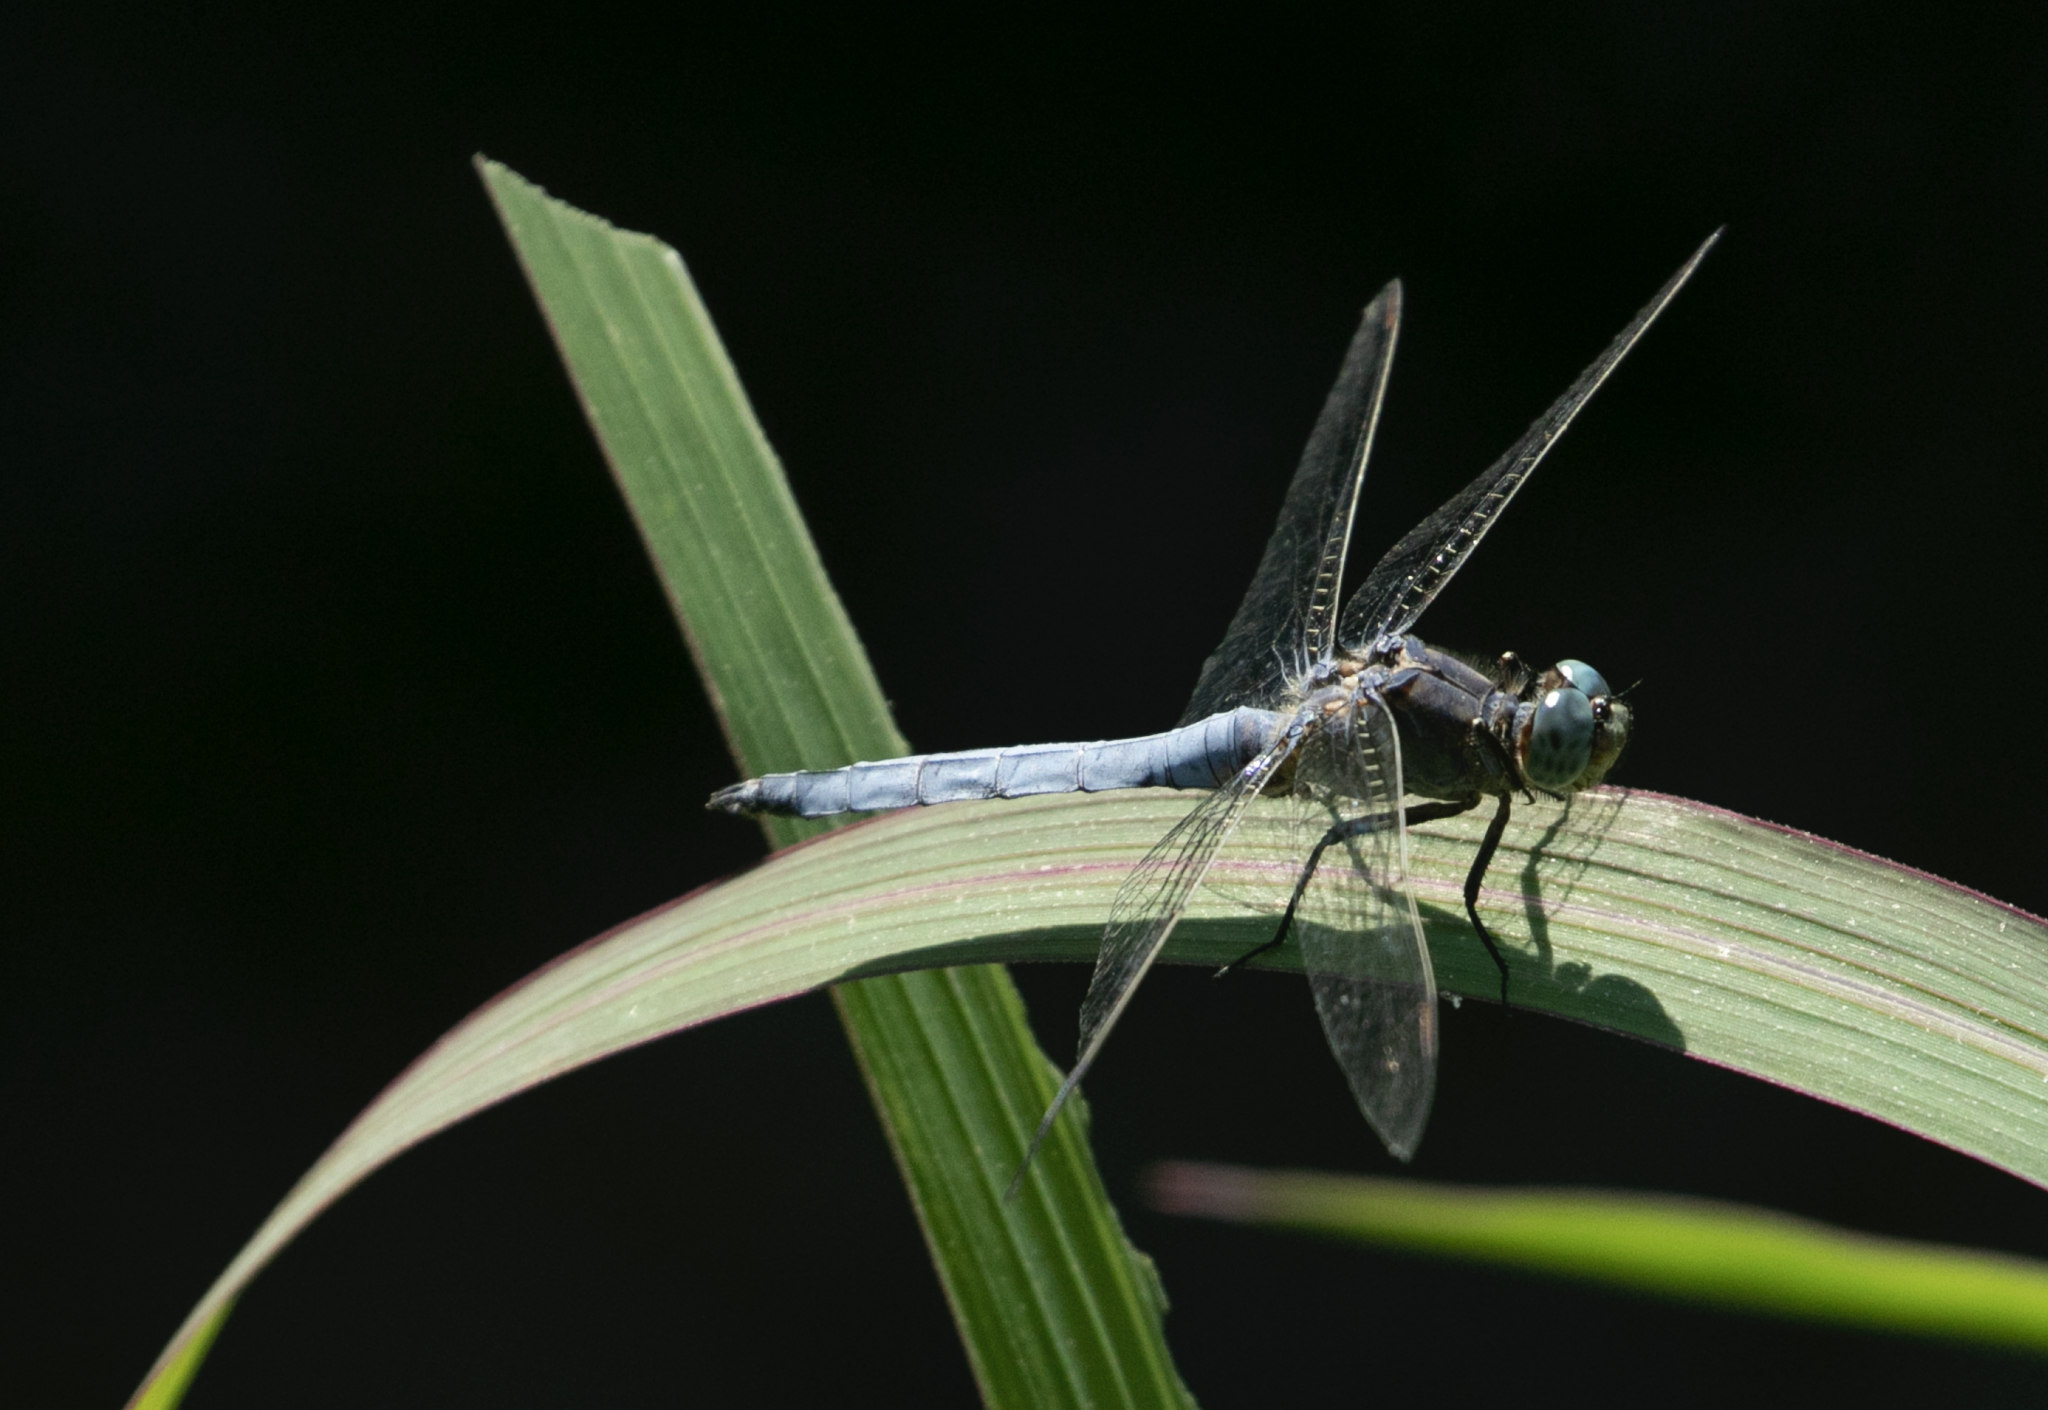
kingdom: Animalia
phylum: Arthropoda
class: Insecta
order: Odonata
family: Libellulidae
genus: Orthetrum
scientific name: Orthetrum coerulescens
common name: Keeled skimmer
